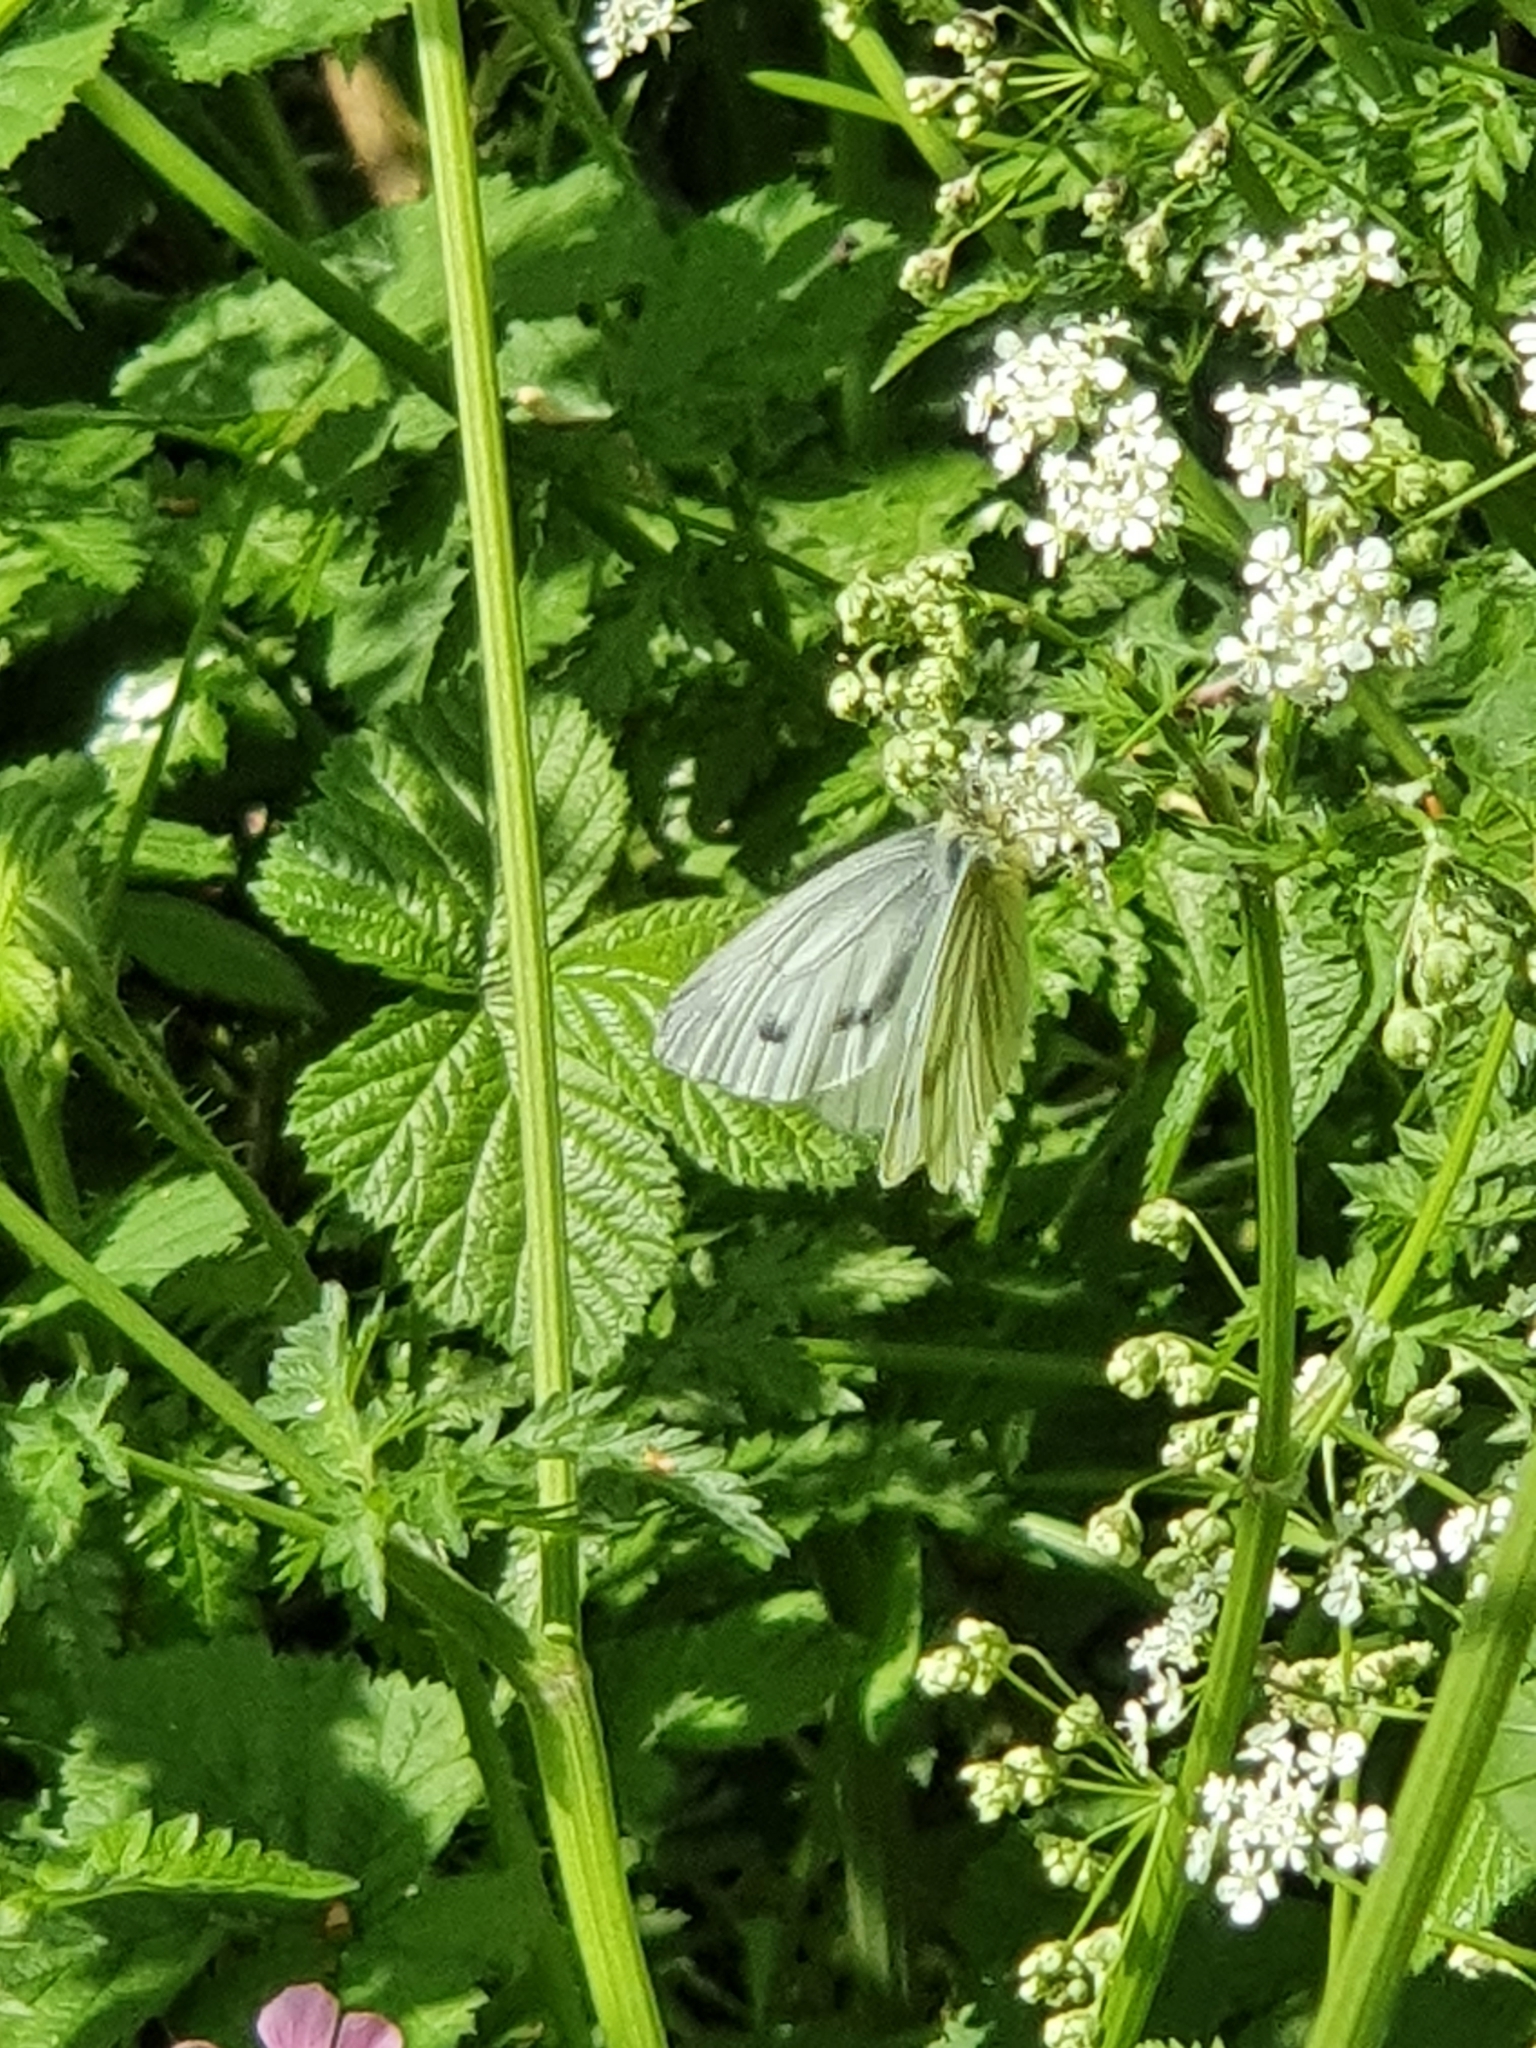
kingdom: Animalia
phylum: Arthropoda
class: Insecta
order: Lepidoptera
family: Pieridae
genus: Pieris
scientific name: Pieris napi
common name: Green-veined white
